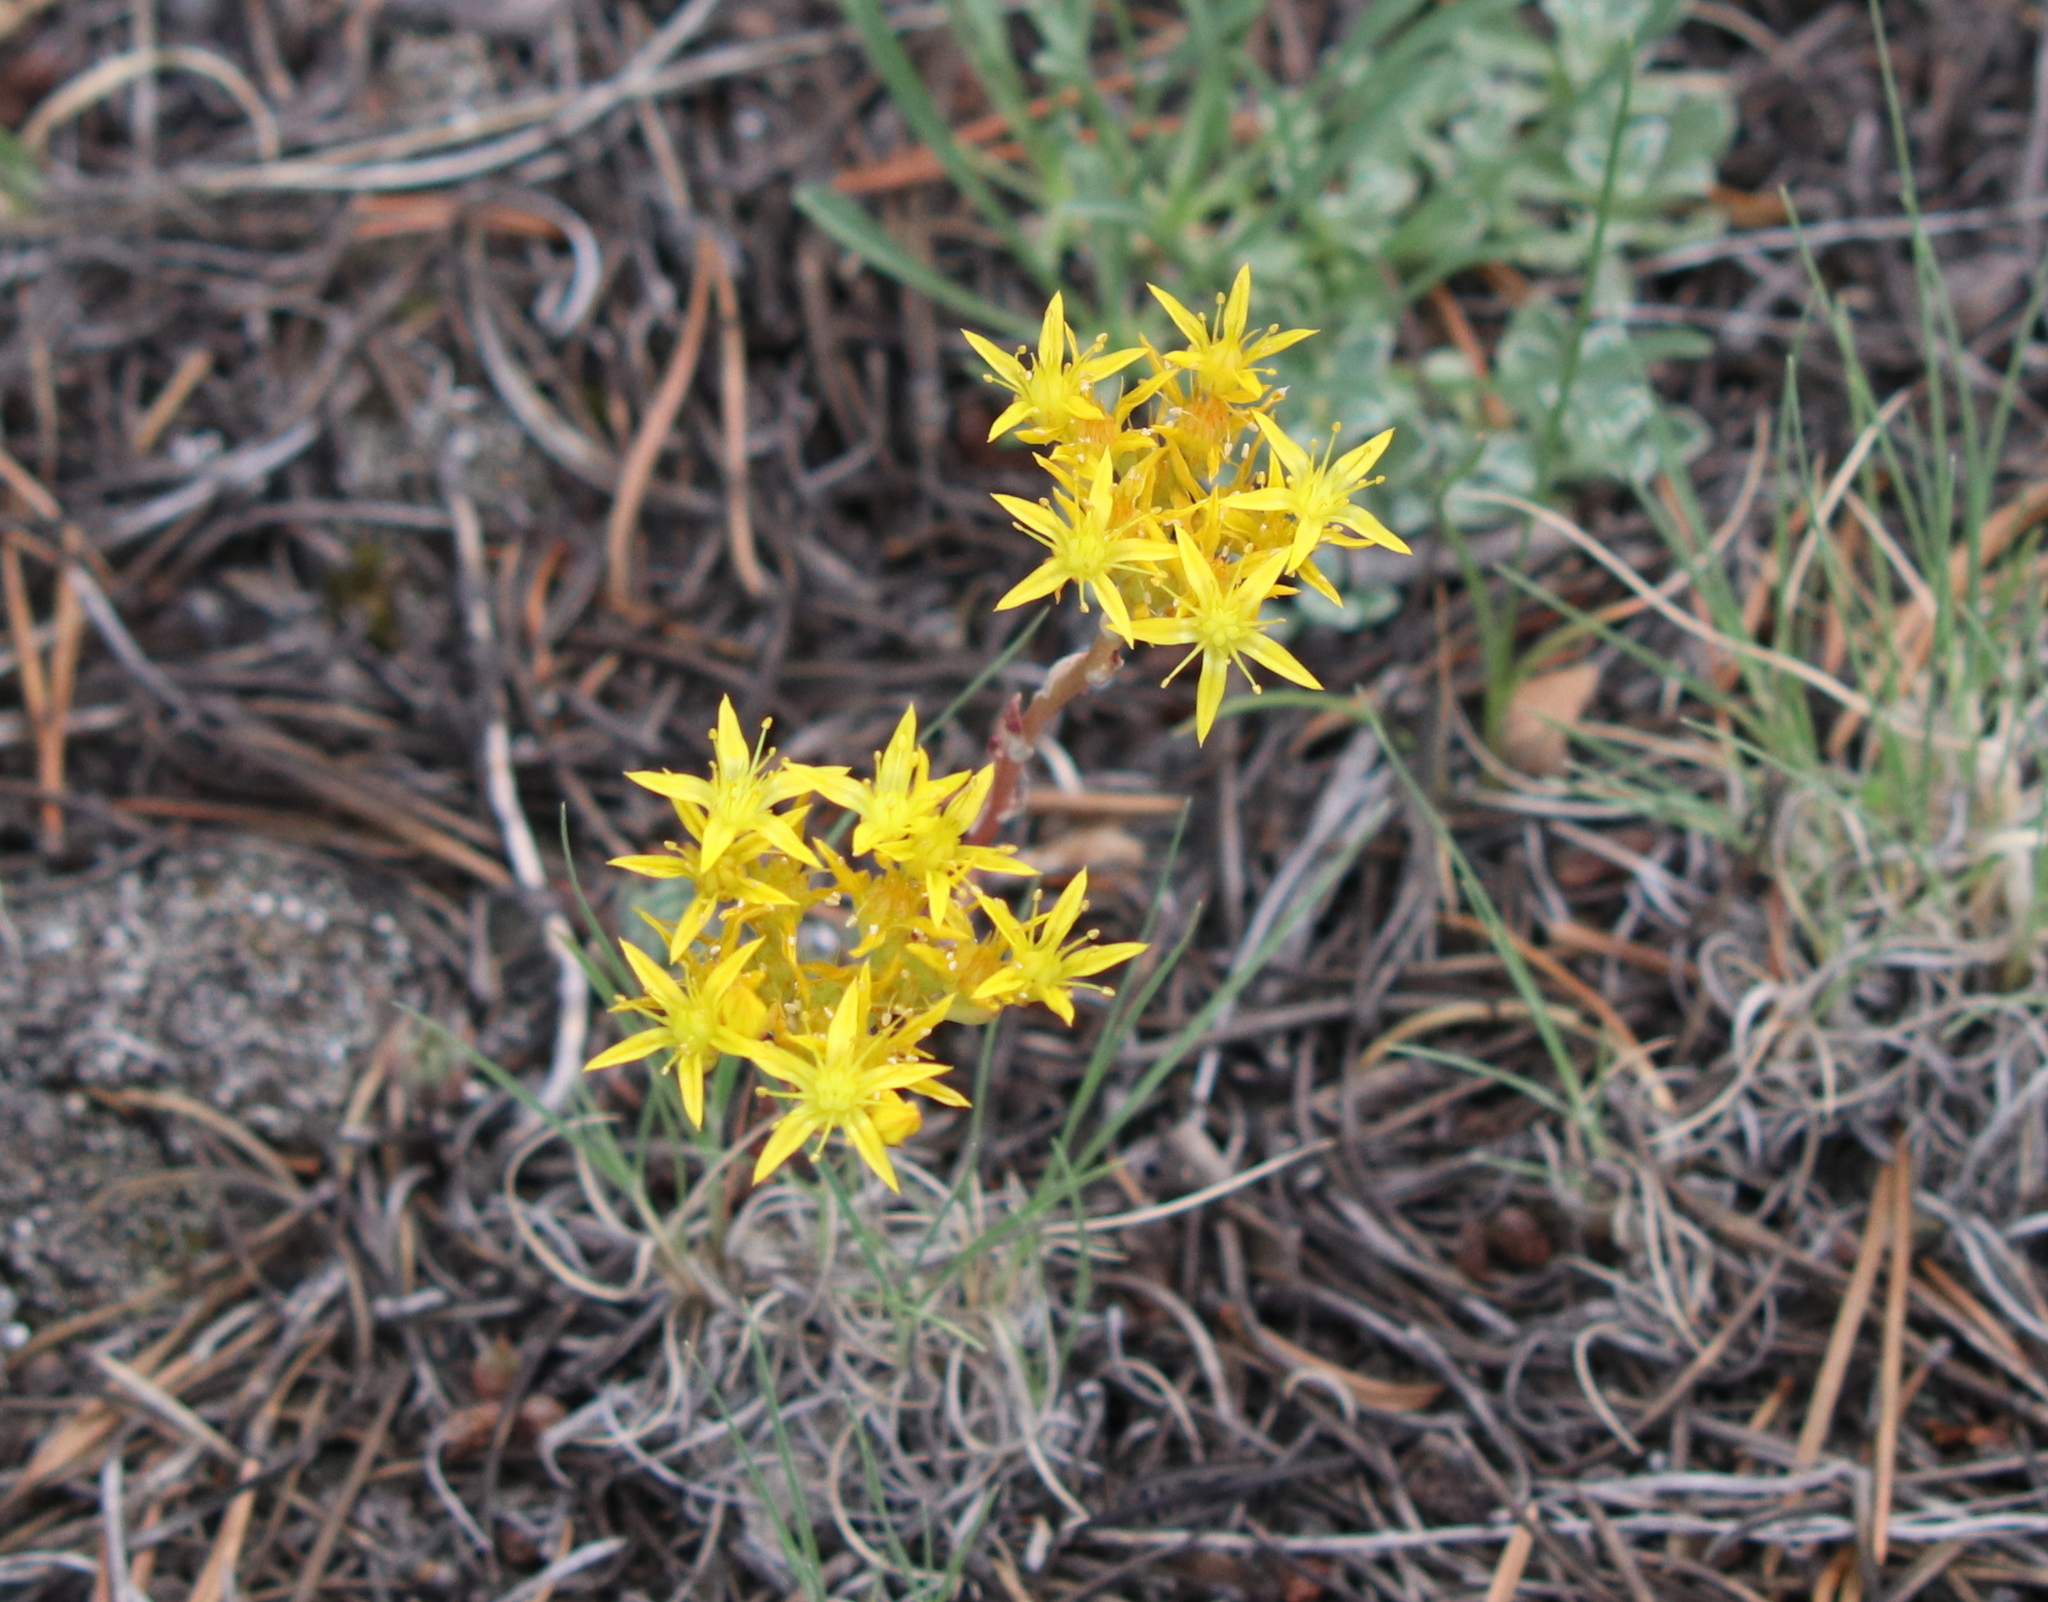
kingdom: Plantae
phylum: Tracheophyta
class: Magnoliopsida
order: Saxifragales
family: Crassulaceae
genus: Sedum
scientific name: Sedum lanceolatum
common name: Common stonecrop
